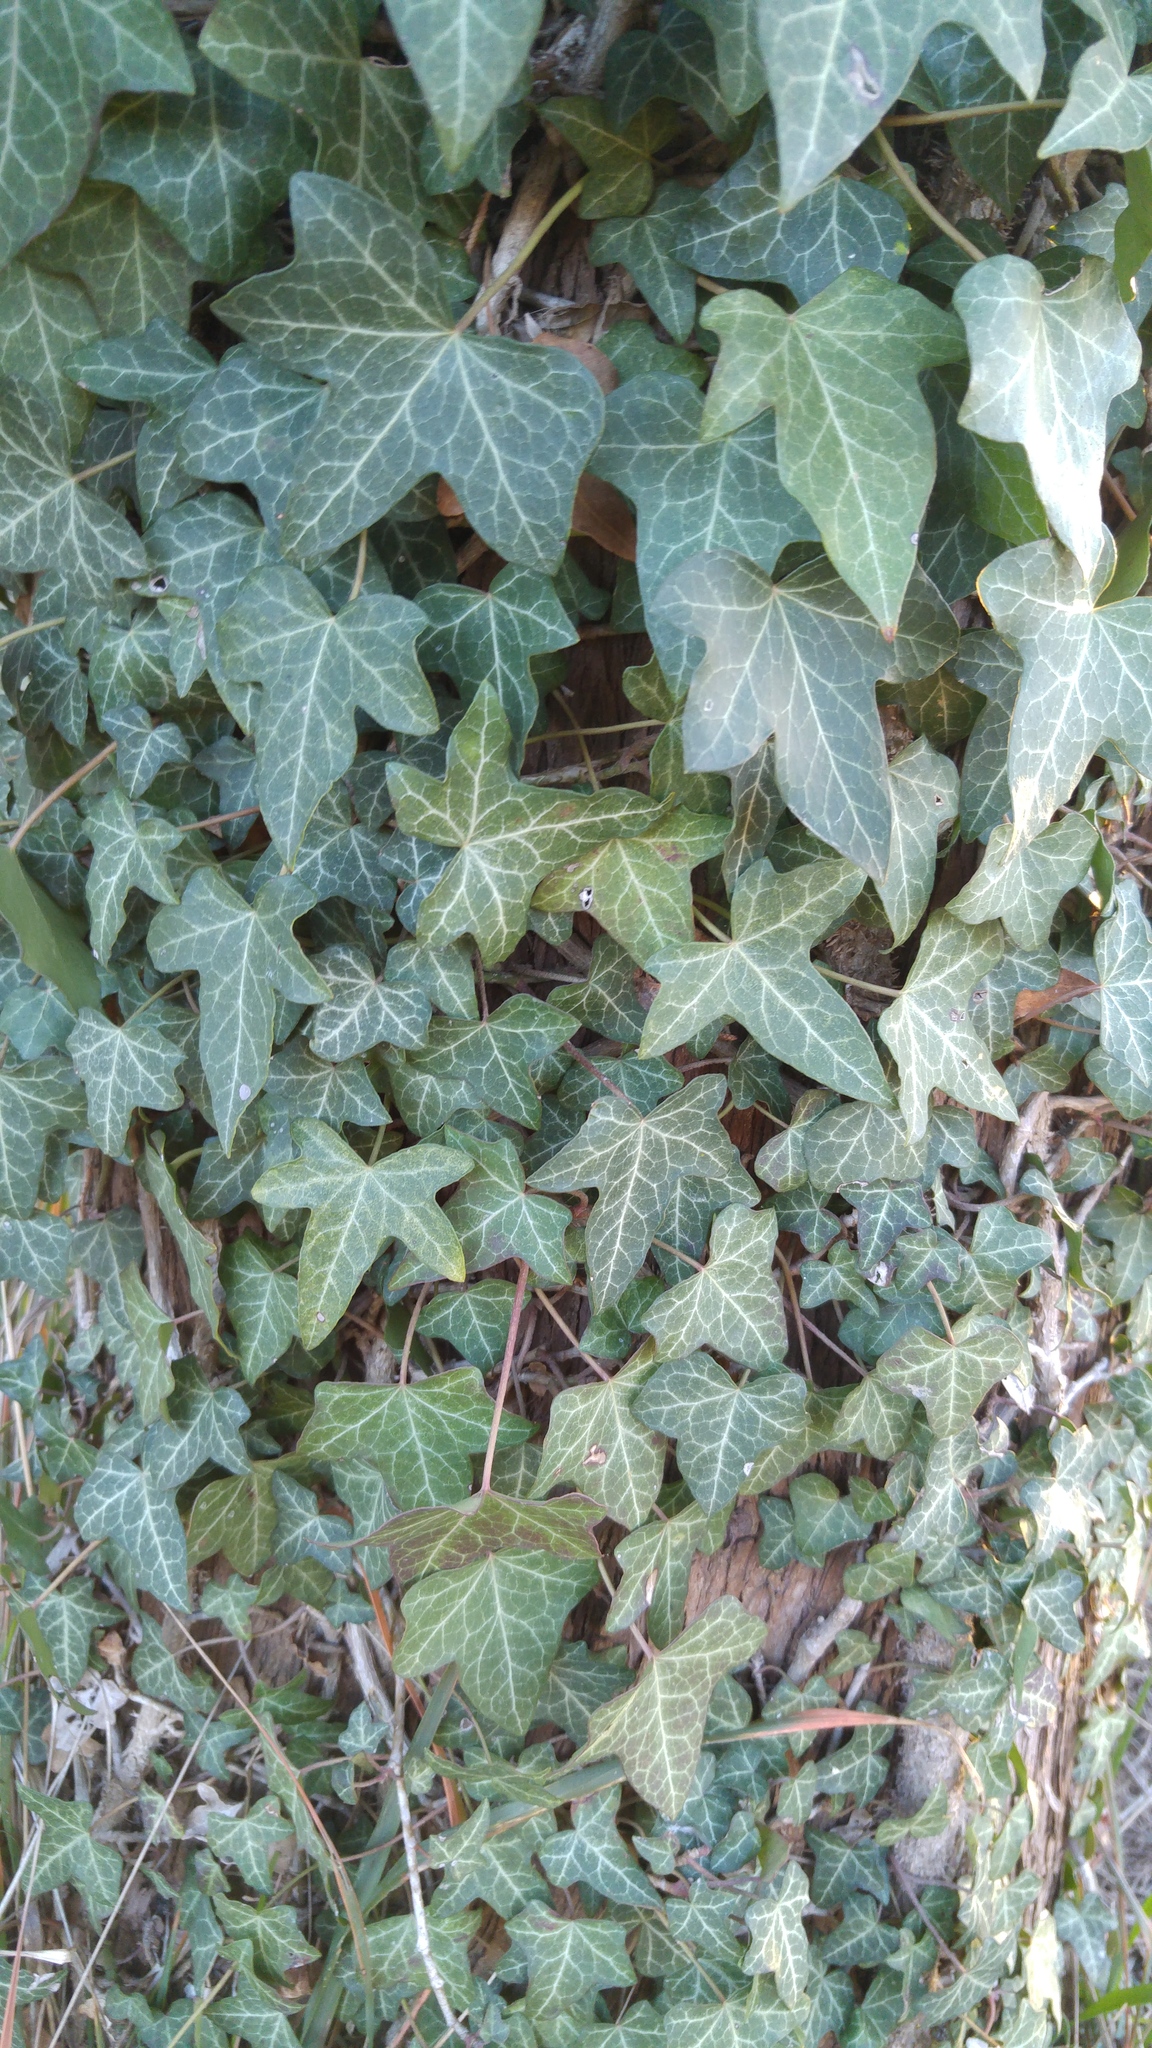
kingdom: Plantae
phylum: Tracheophyta
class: Magnoliopsida
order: Apiales
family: Araliaceae
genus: Hedera
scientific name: Hedera helix
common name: Ivy
